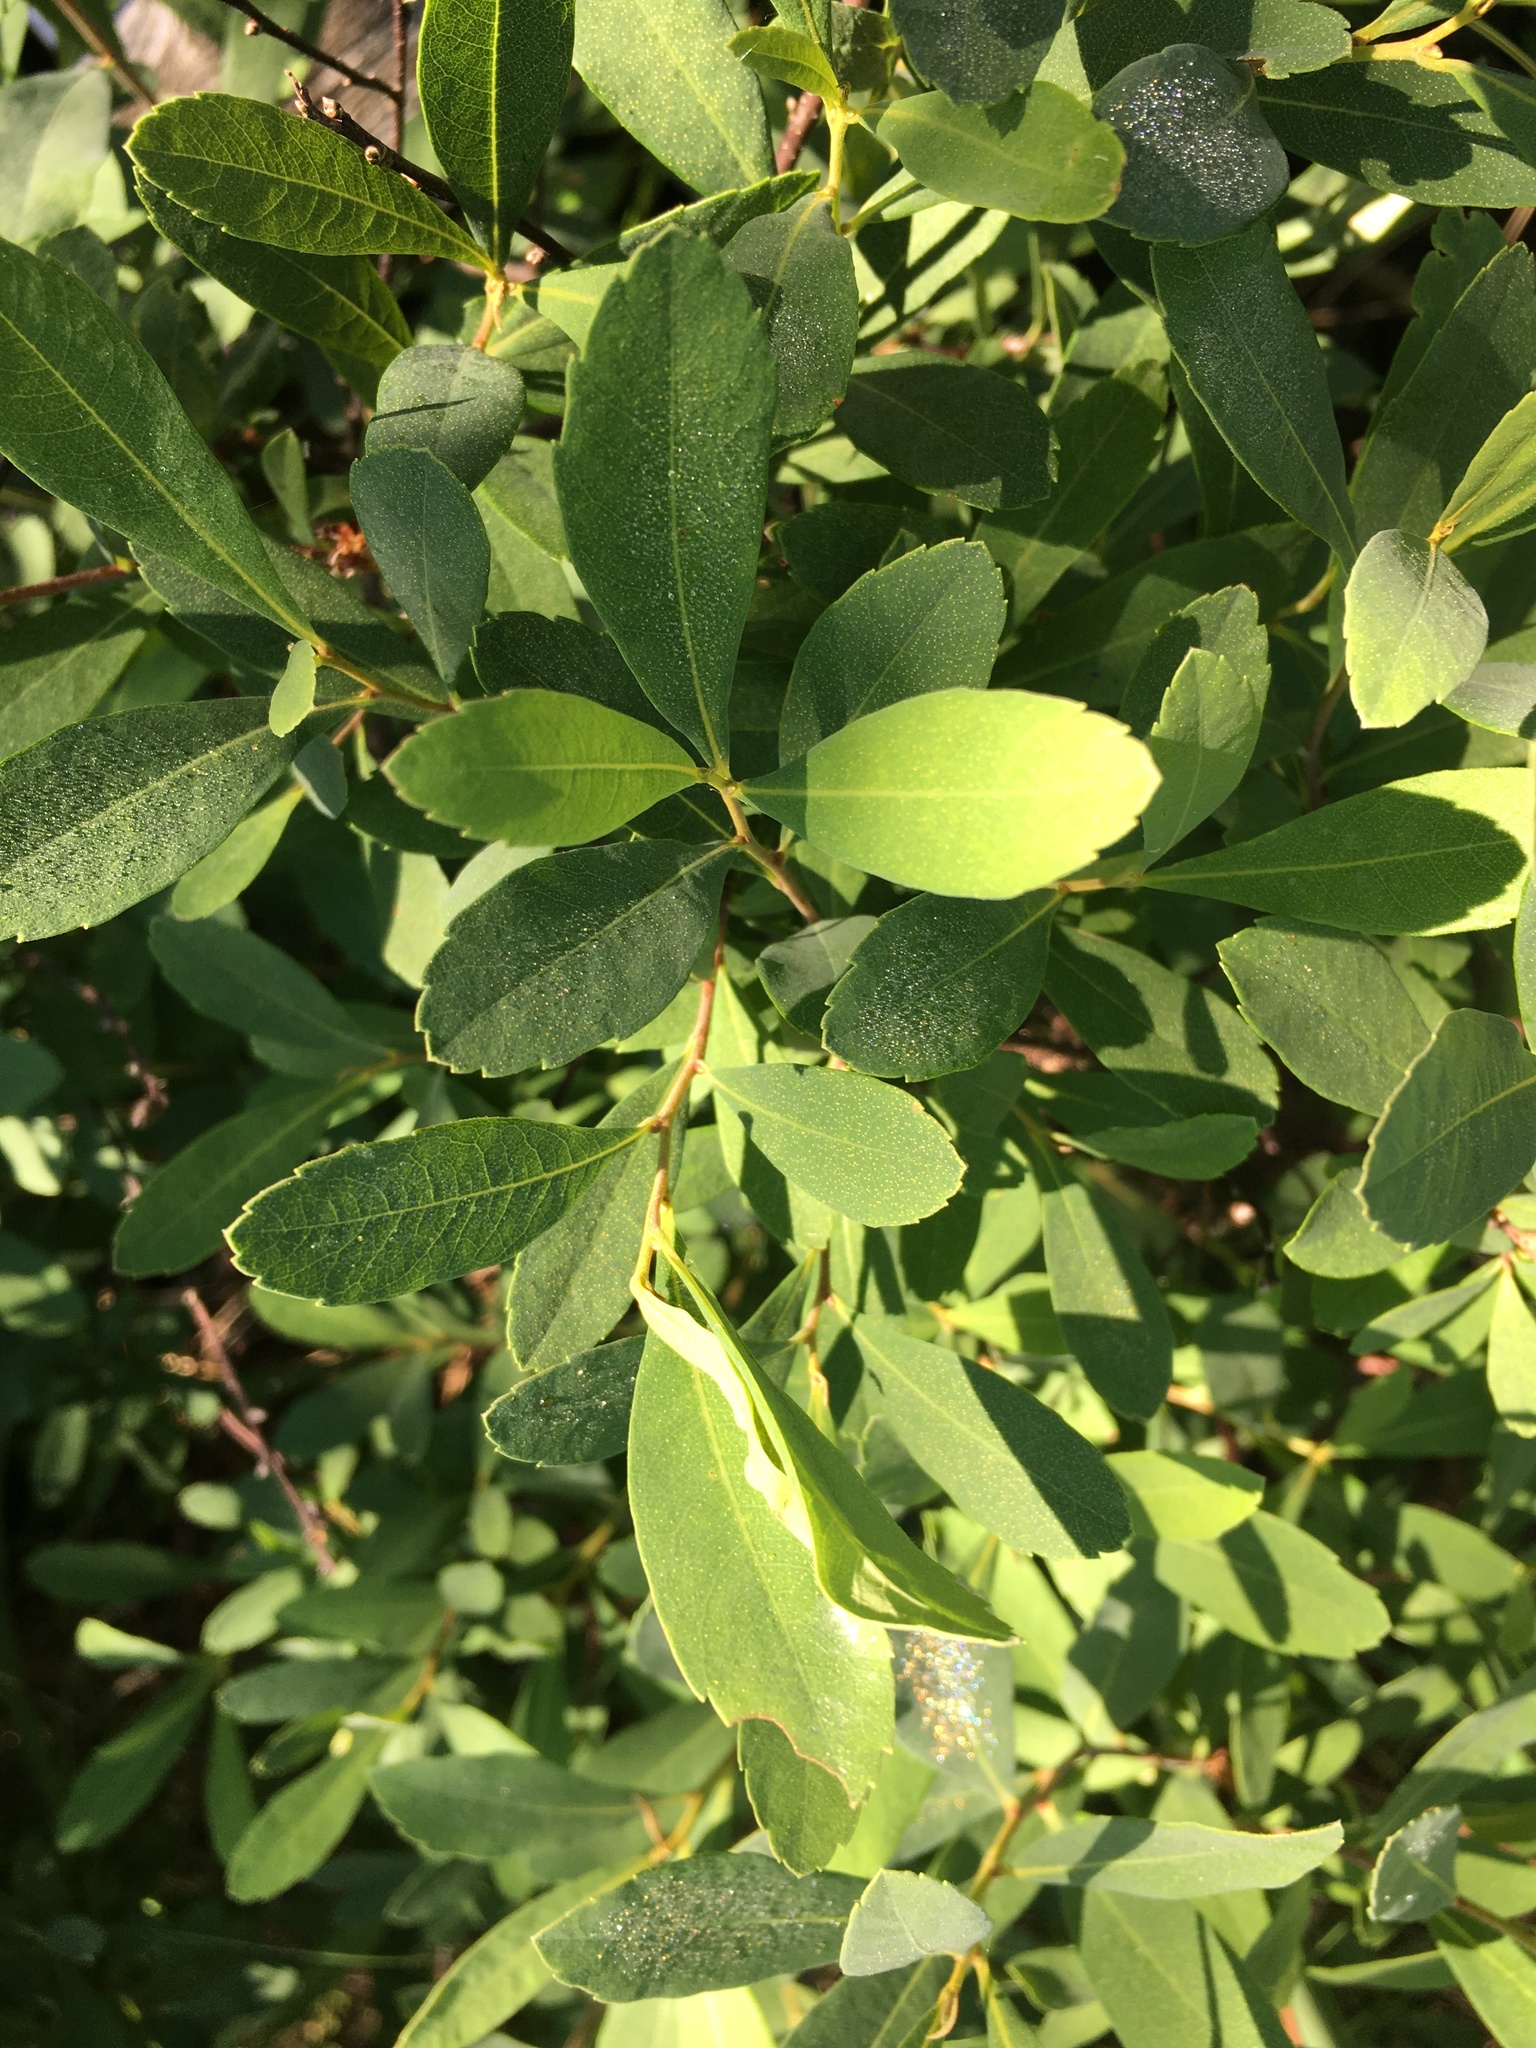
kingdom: Plantae
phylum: Tracheophyta
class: Magnoliopsida
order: Fagales
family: Myricaceae
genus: Myrica
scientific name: Myrica gale
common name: Sweet gale
